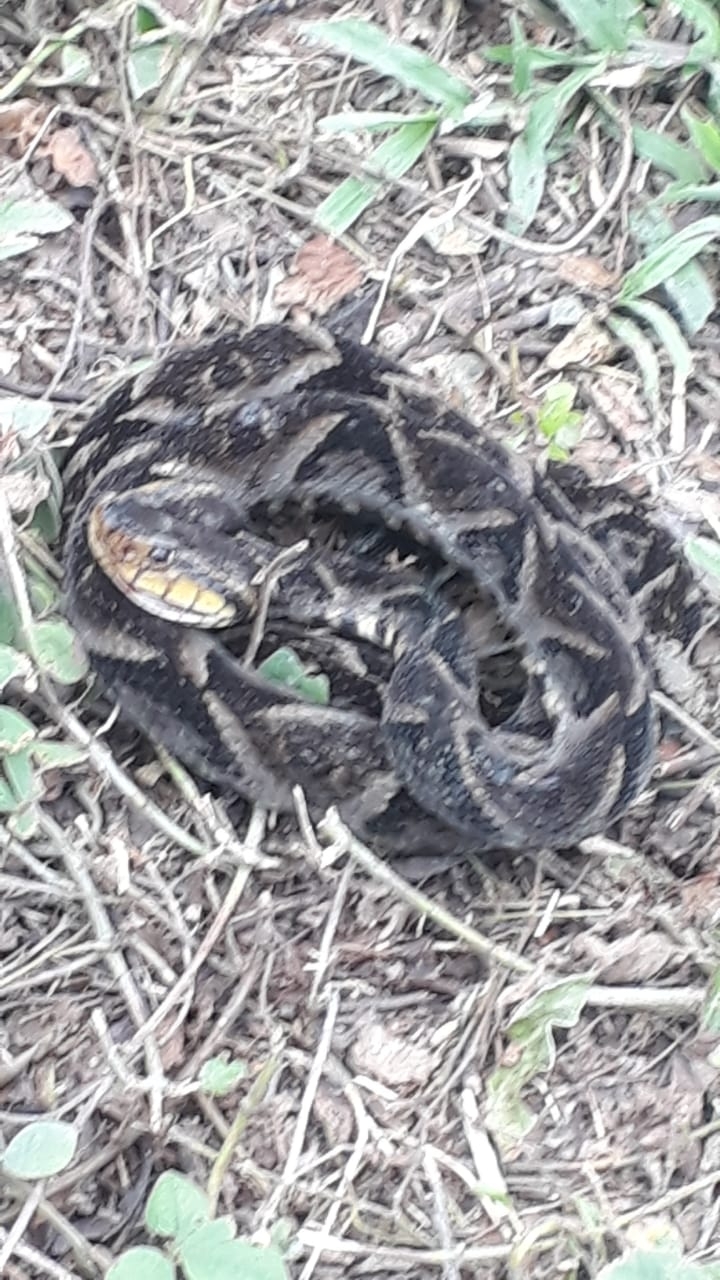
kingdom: Animalia
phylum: Chordata
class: Squamata
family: Viperidae
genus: Bothrops
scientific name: Bothrops asper
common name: Terciopelo
